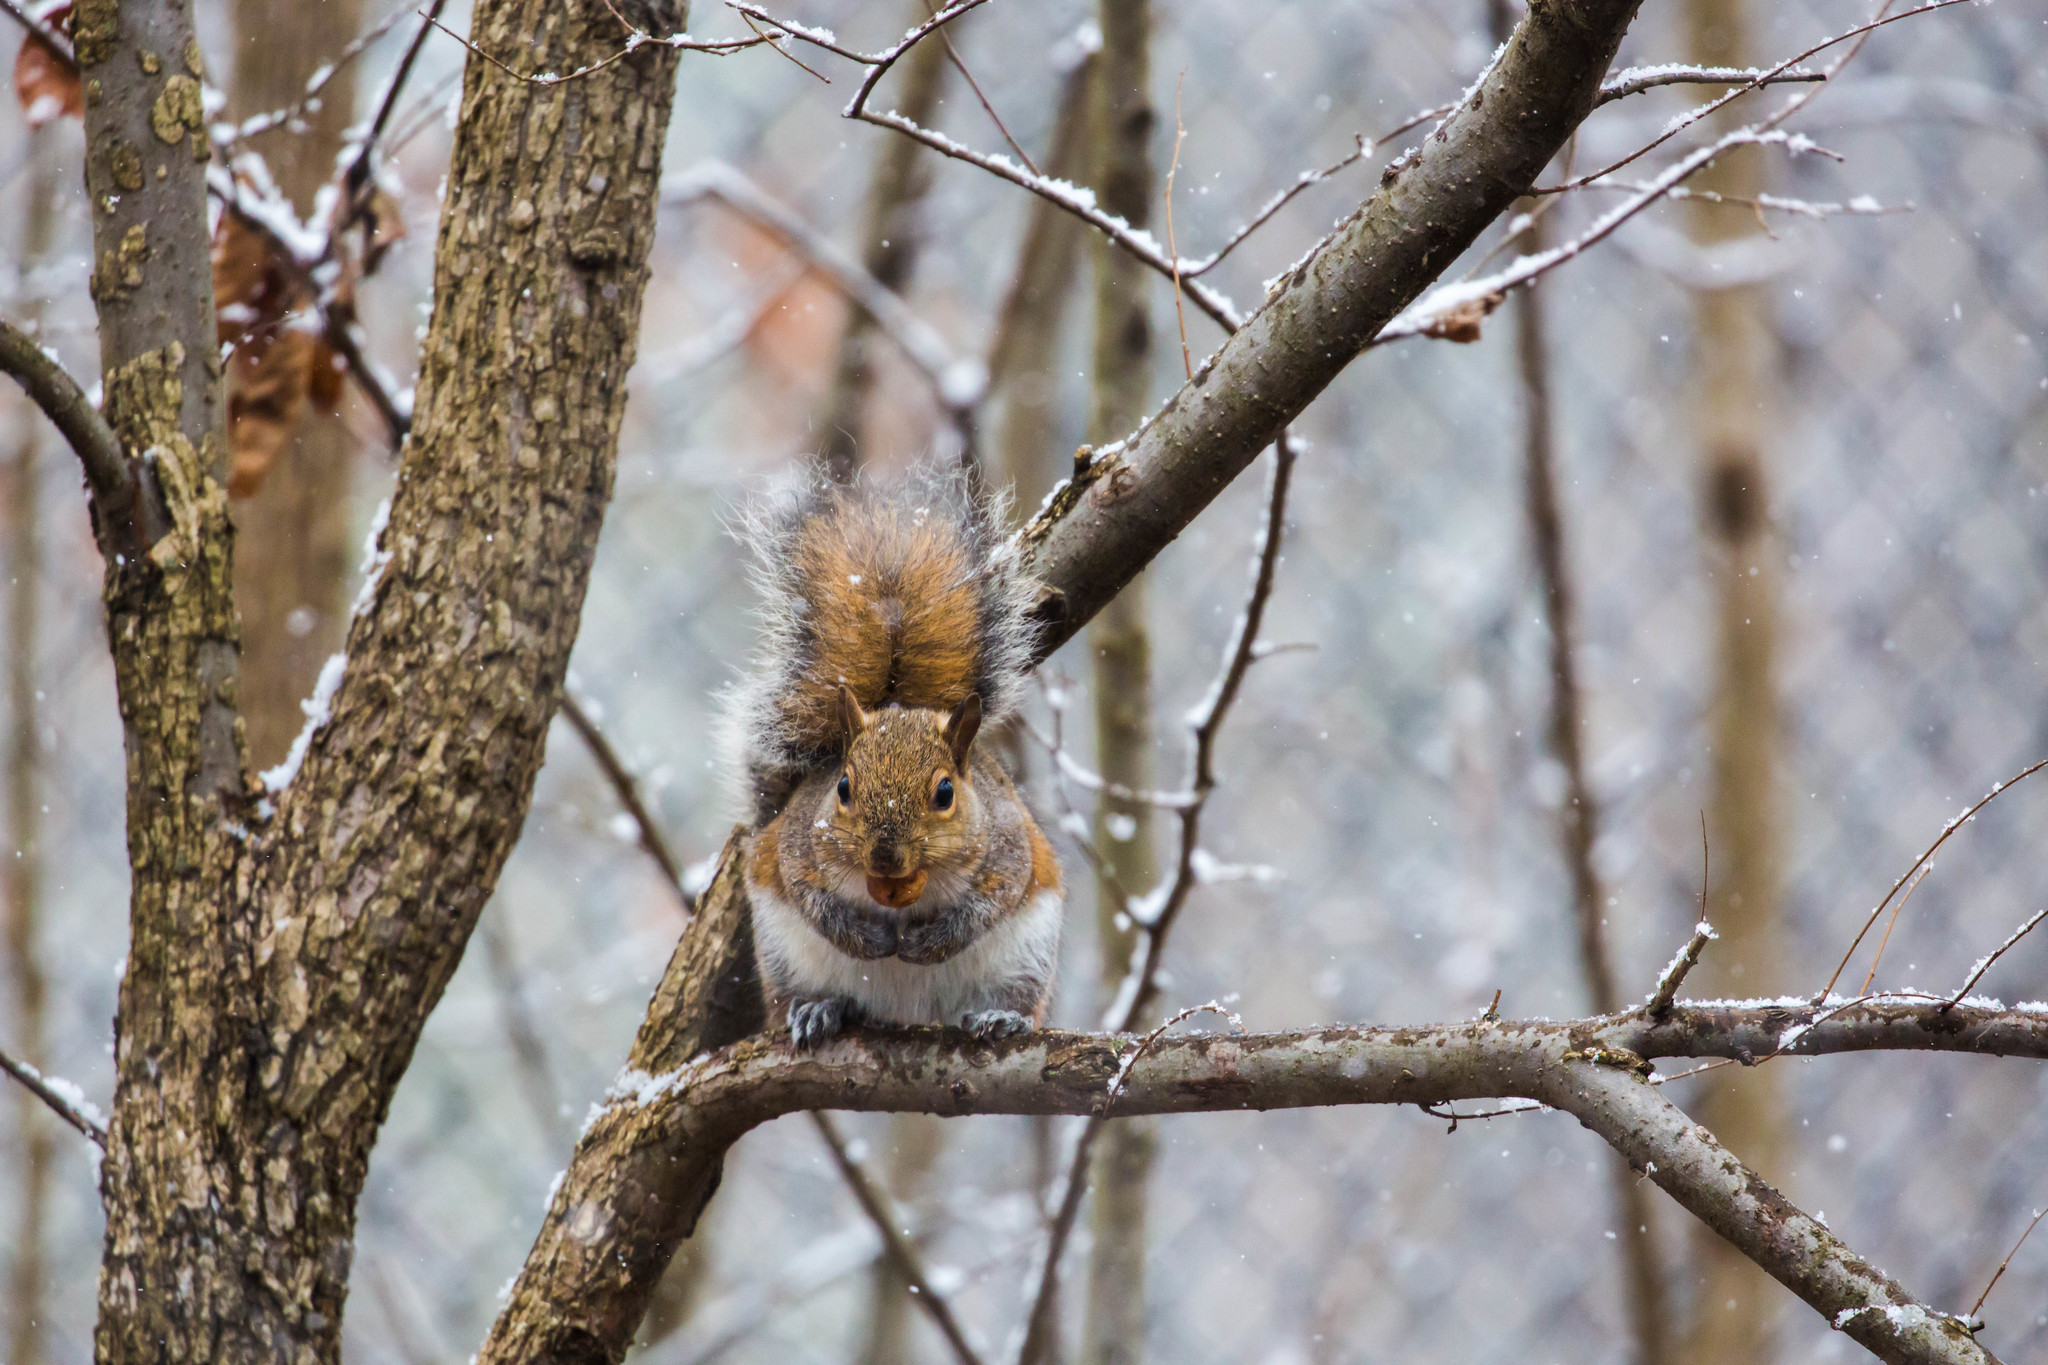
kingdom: Animalia
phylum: Chordata
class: Mammalia
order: Rodentia
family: Sciuridae
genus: Sciurus
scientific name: Sciurus carolinensis
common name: Eastern gray squirrel
